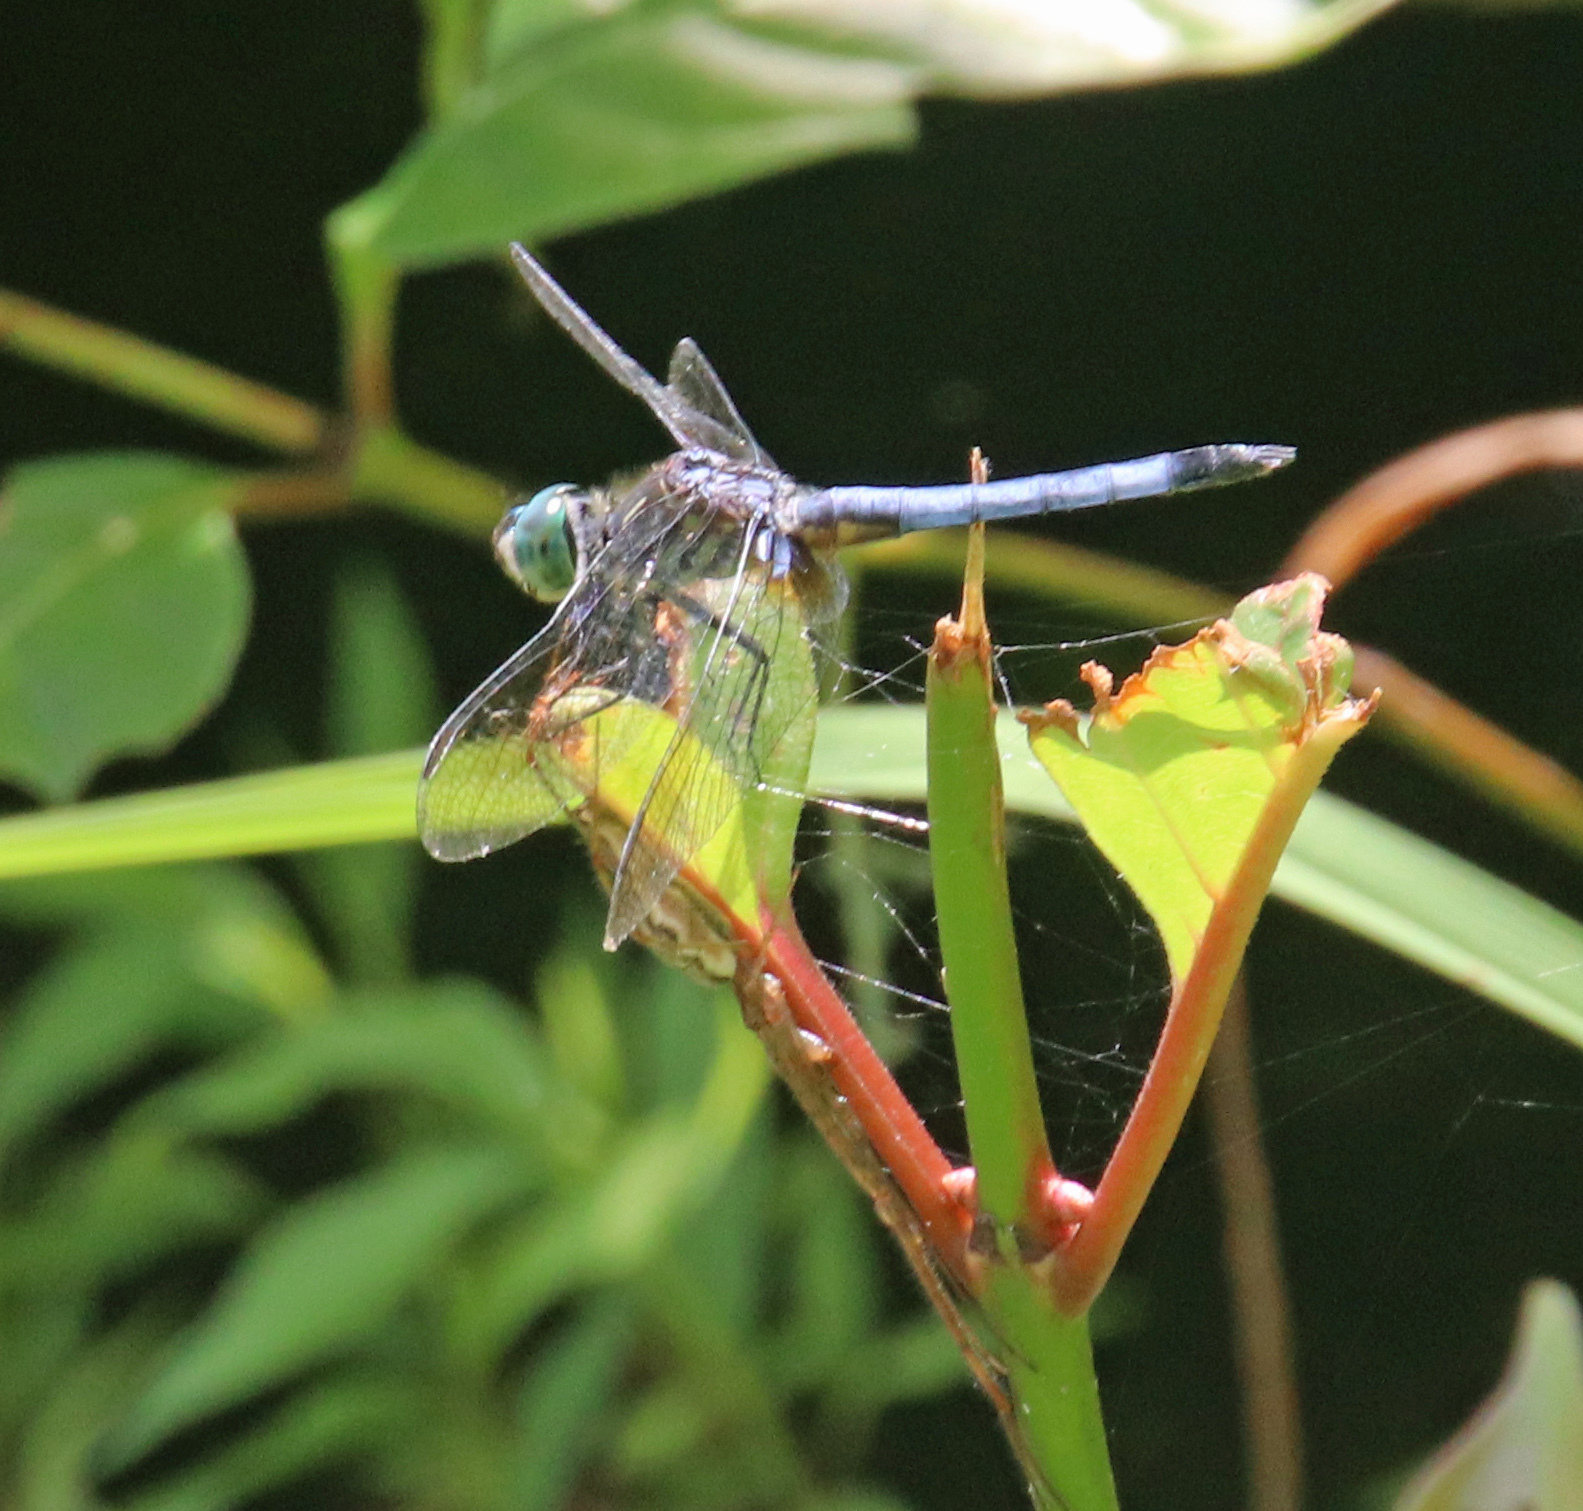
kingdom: Animalia
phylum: Arthropoda
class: Insecta
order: Odonata
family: Libellulidae
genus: Pachydiplax
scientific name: Pachydiplax longipennis
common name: Blue dasher
